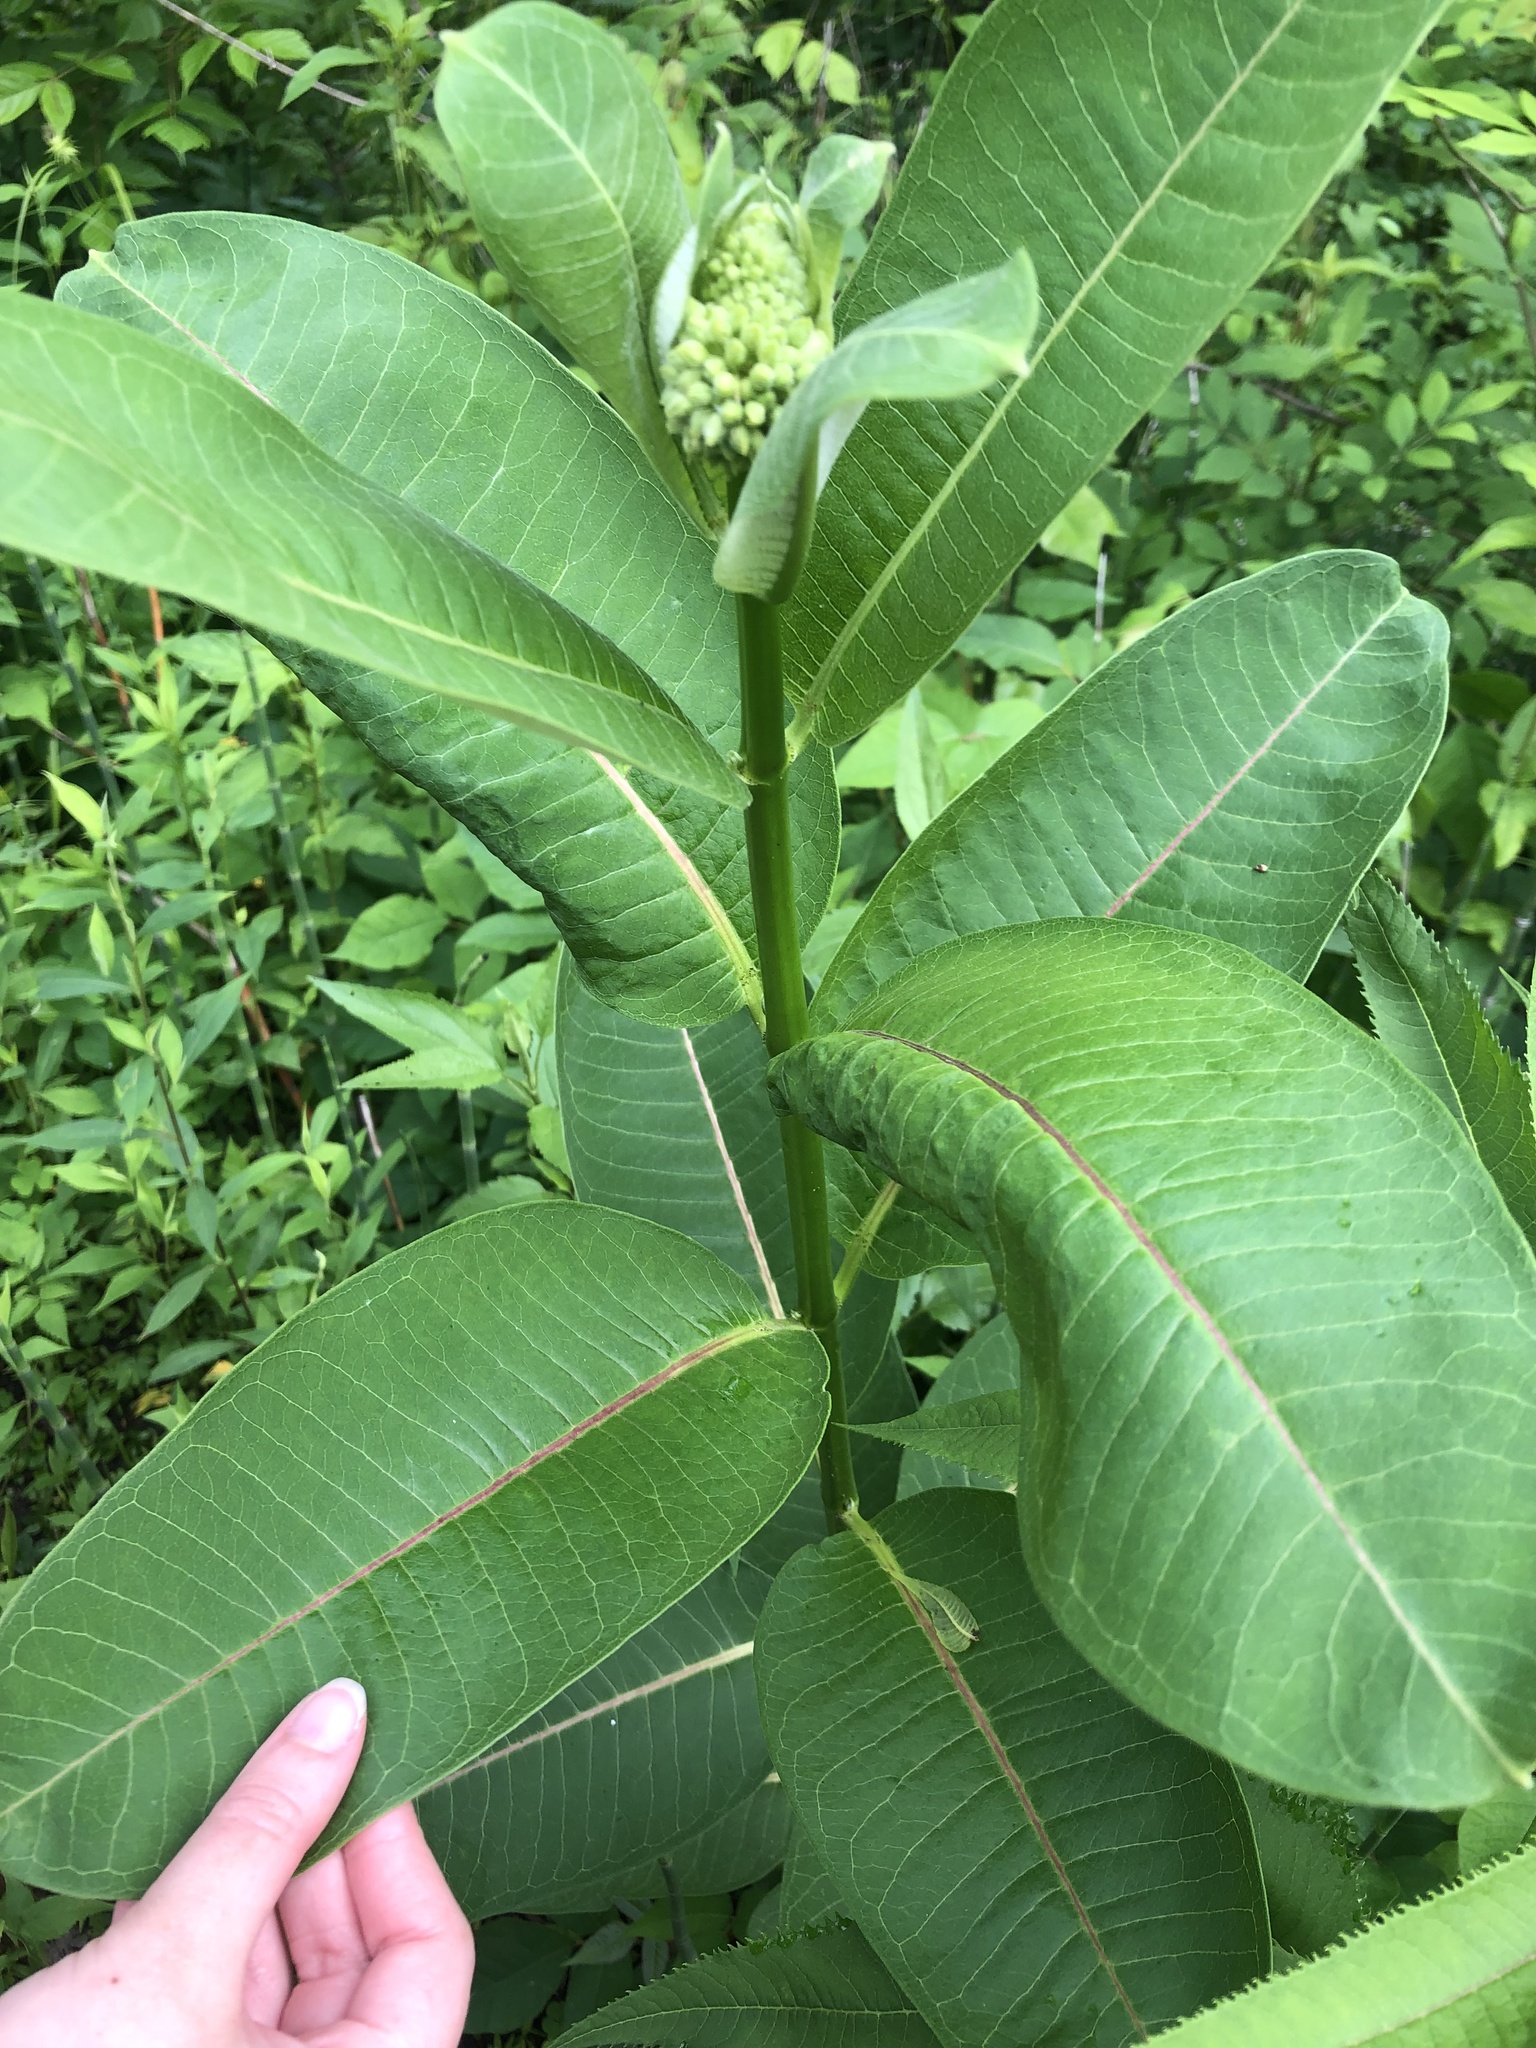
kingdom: Plantae
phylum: Tracheophyta
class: Magnoliopsida
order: Gentianales
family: Apocynaceae
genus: Asclepias
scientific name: Asclepias syriaca
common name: Common milkweed
